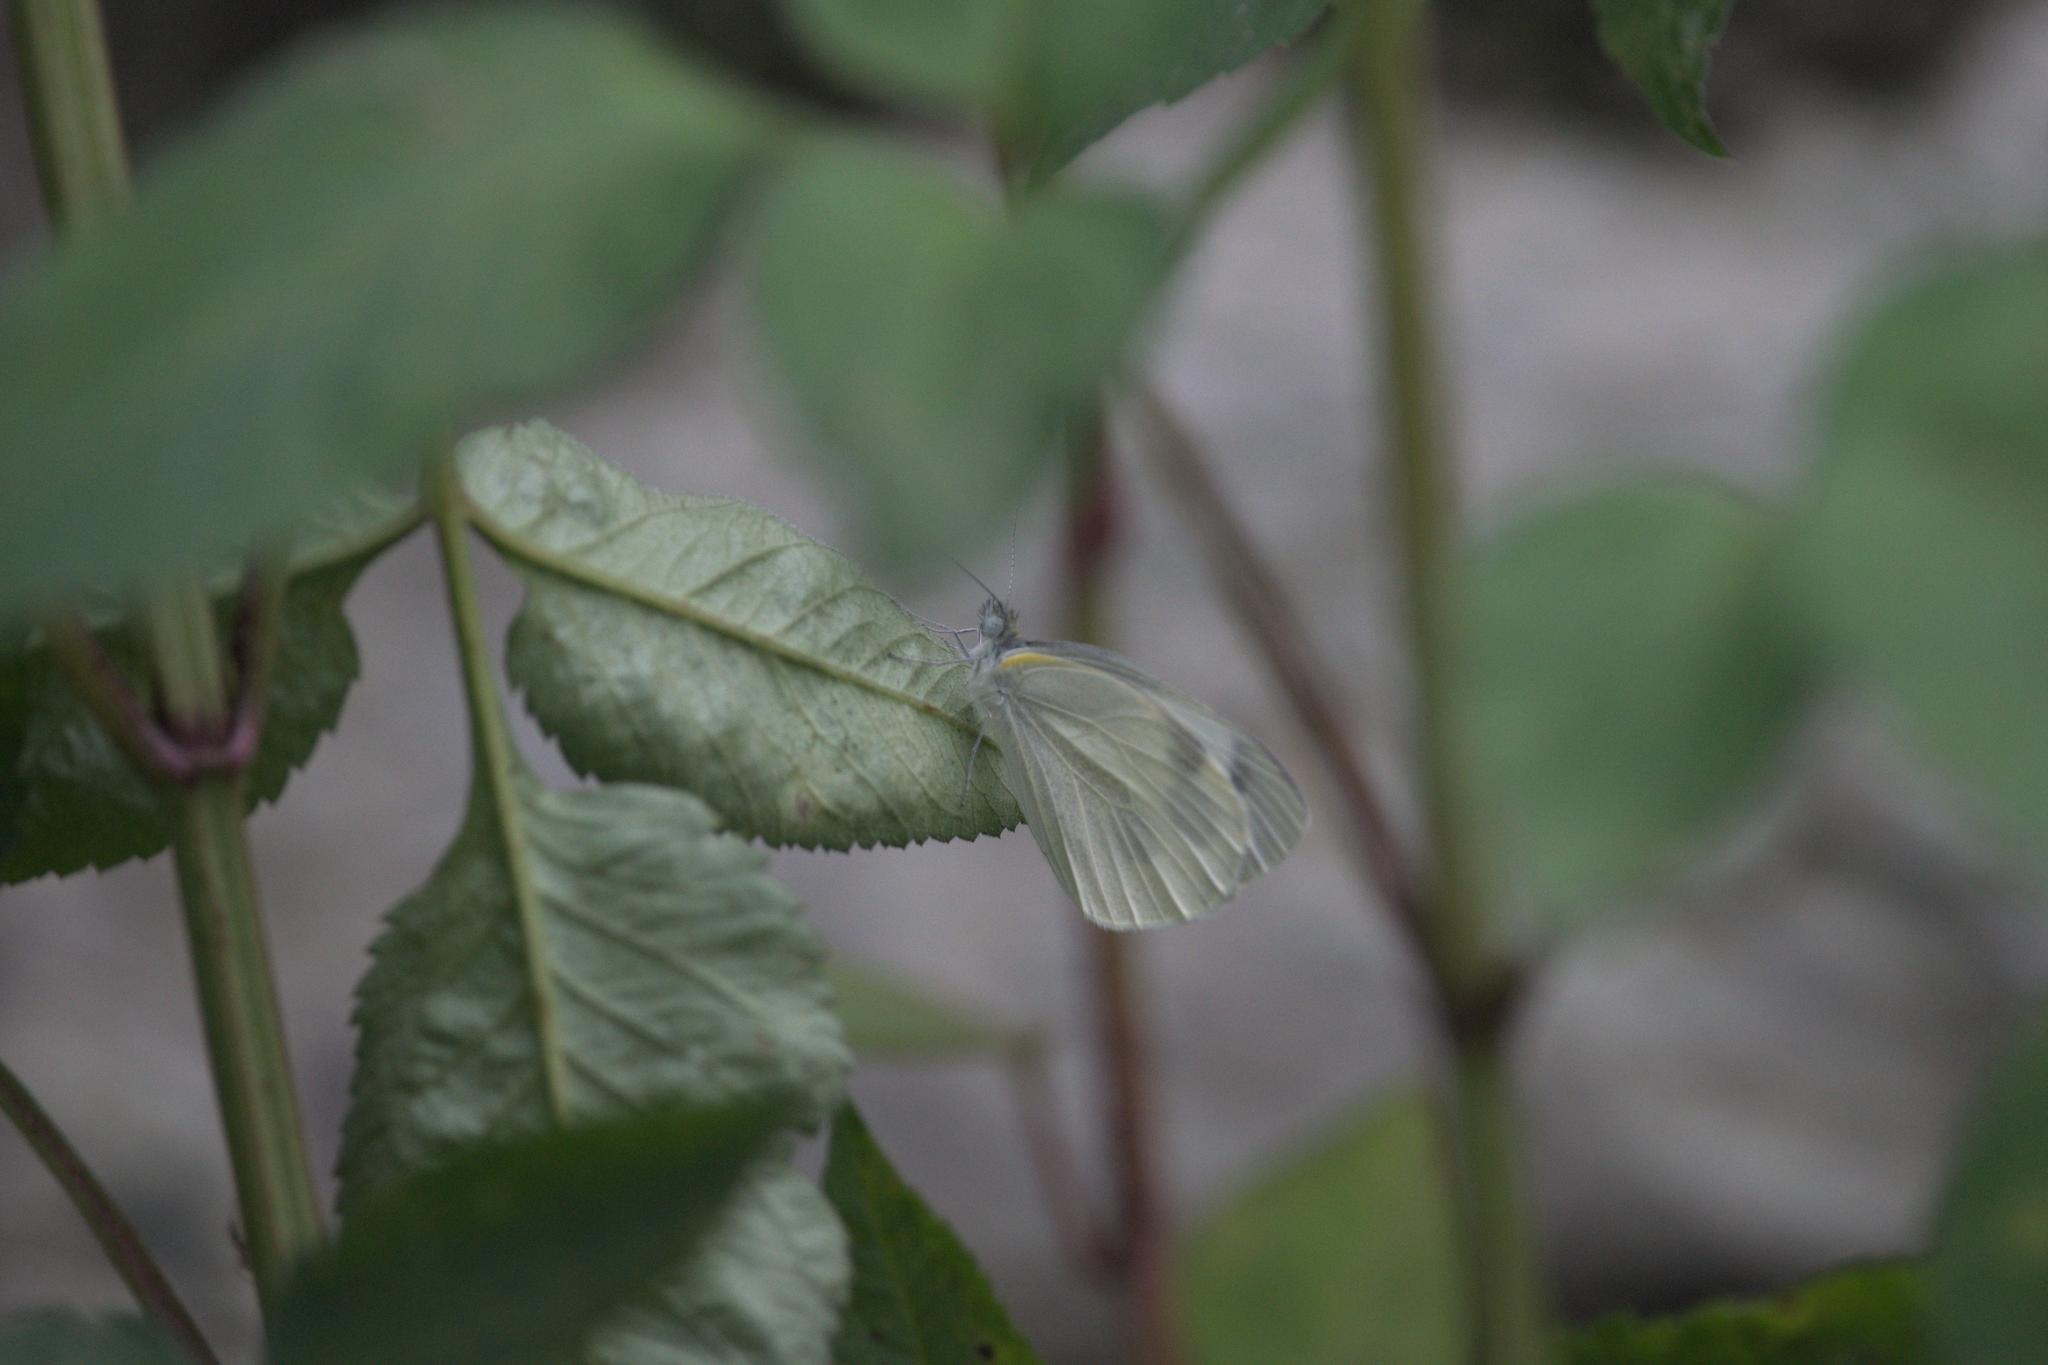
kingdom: Animalia
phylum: Arthropoda
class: Insecta
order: Lepidoptera
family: Pieridae
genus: Pieris
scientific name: Pieris canidia
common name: Indian cabbage white
